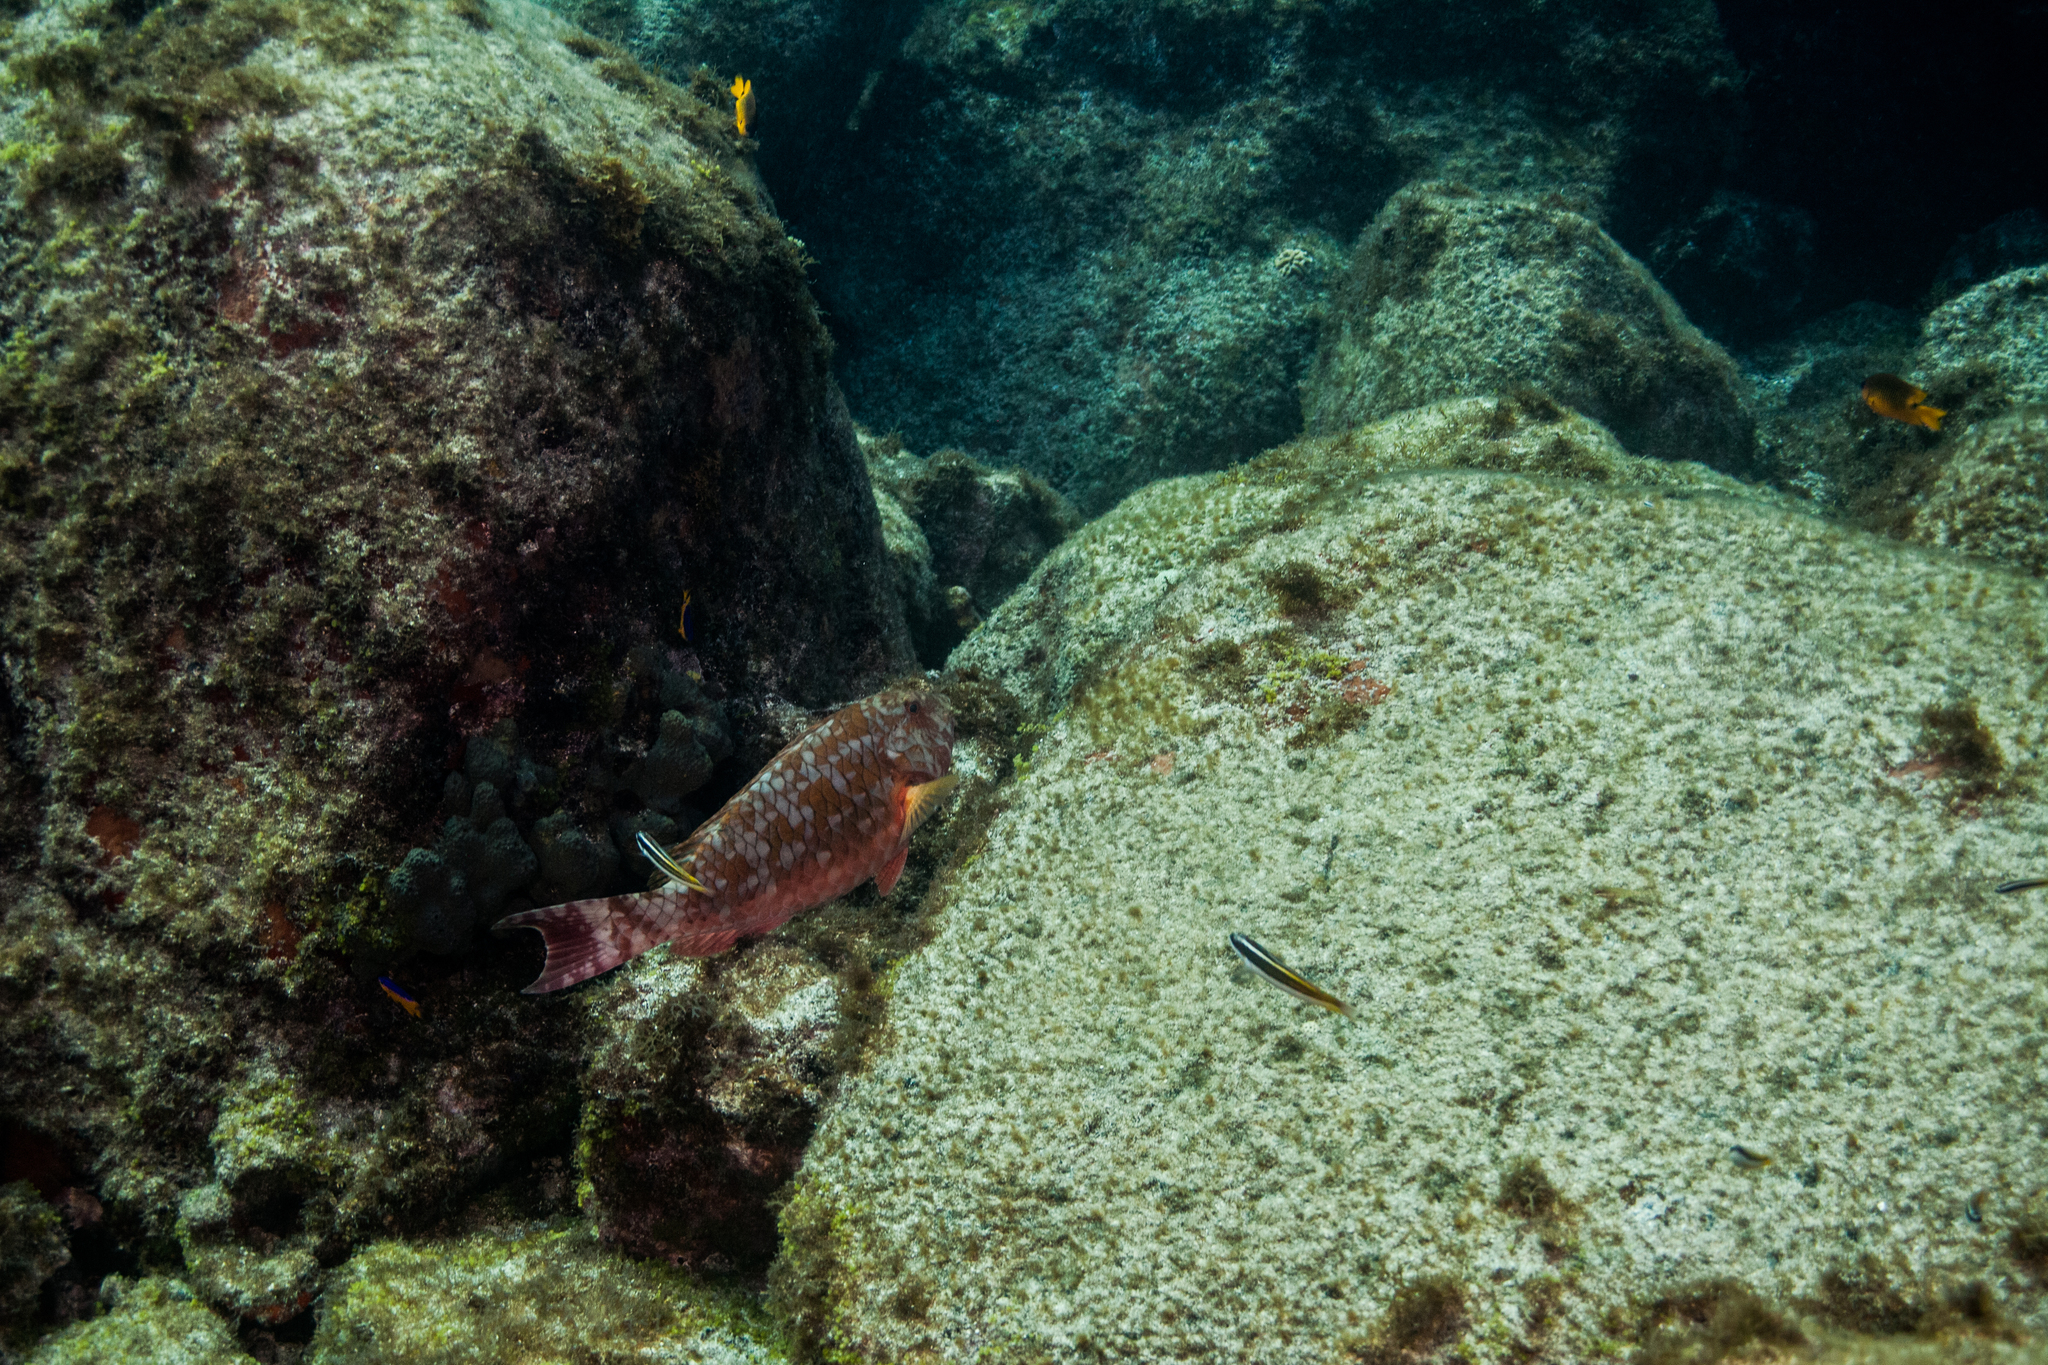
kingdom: Animalia
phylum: Chordata
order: Perciformes
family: Scaridae
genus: Sparisoma
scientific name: Sparisoma axillare
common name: Gray parrotfish
